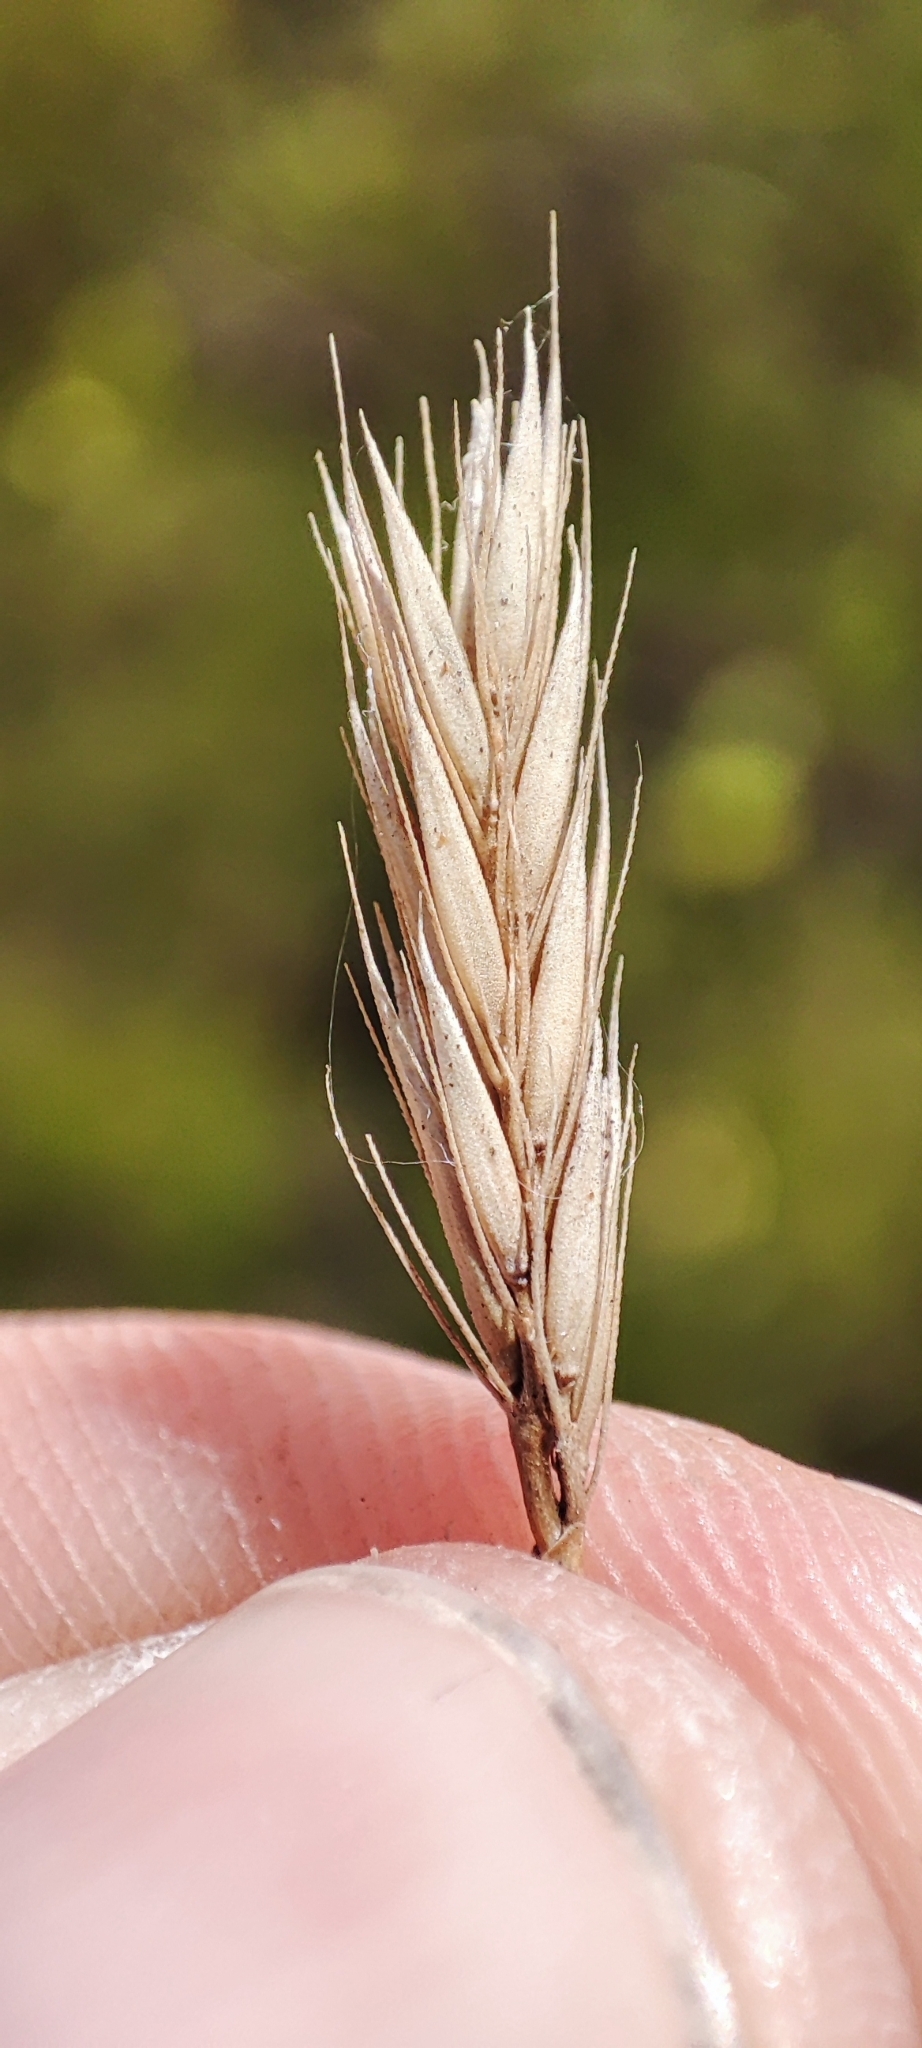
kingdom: Plantae
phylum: Tracheophyta
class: Liliopsida
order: Poales
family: Poaceae
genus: Psathyrostachys
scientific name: Psathyrostachys juncea
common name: Russian wildrye
